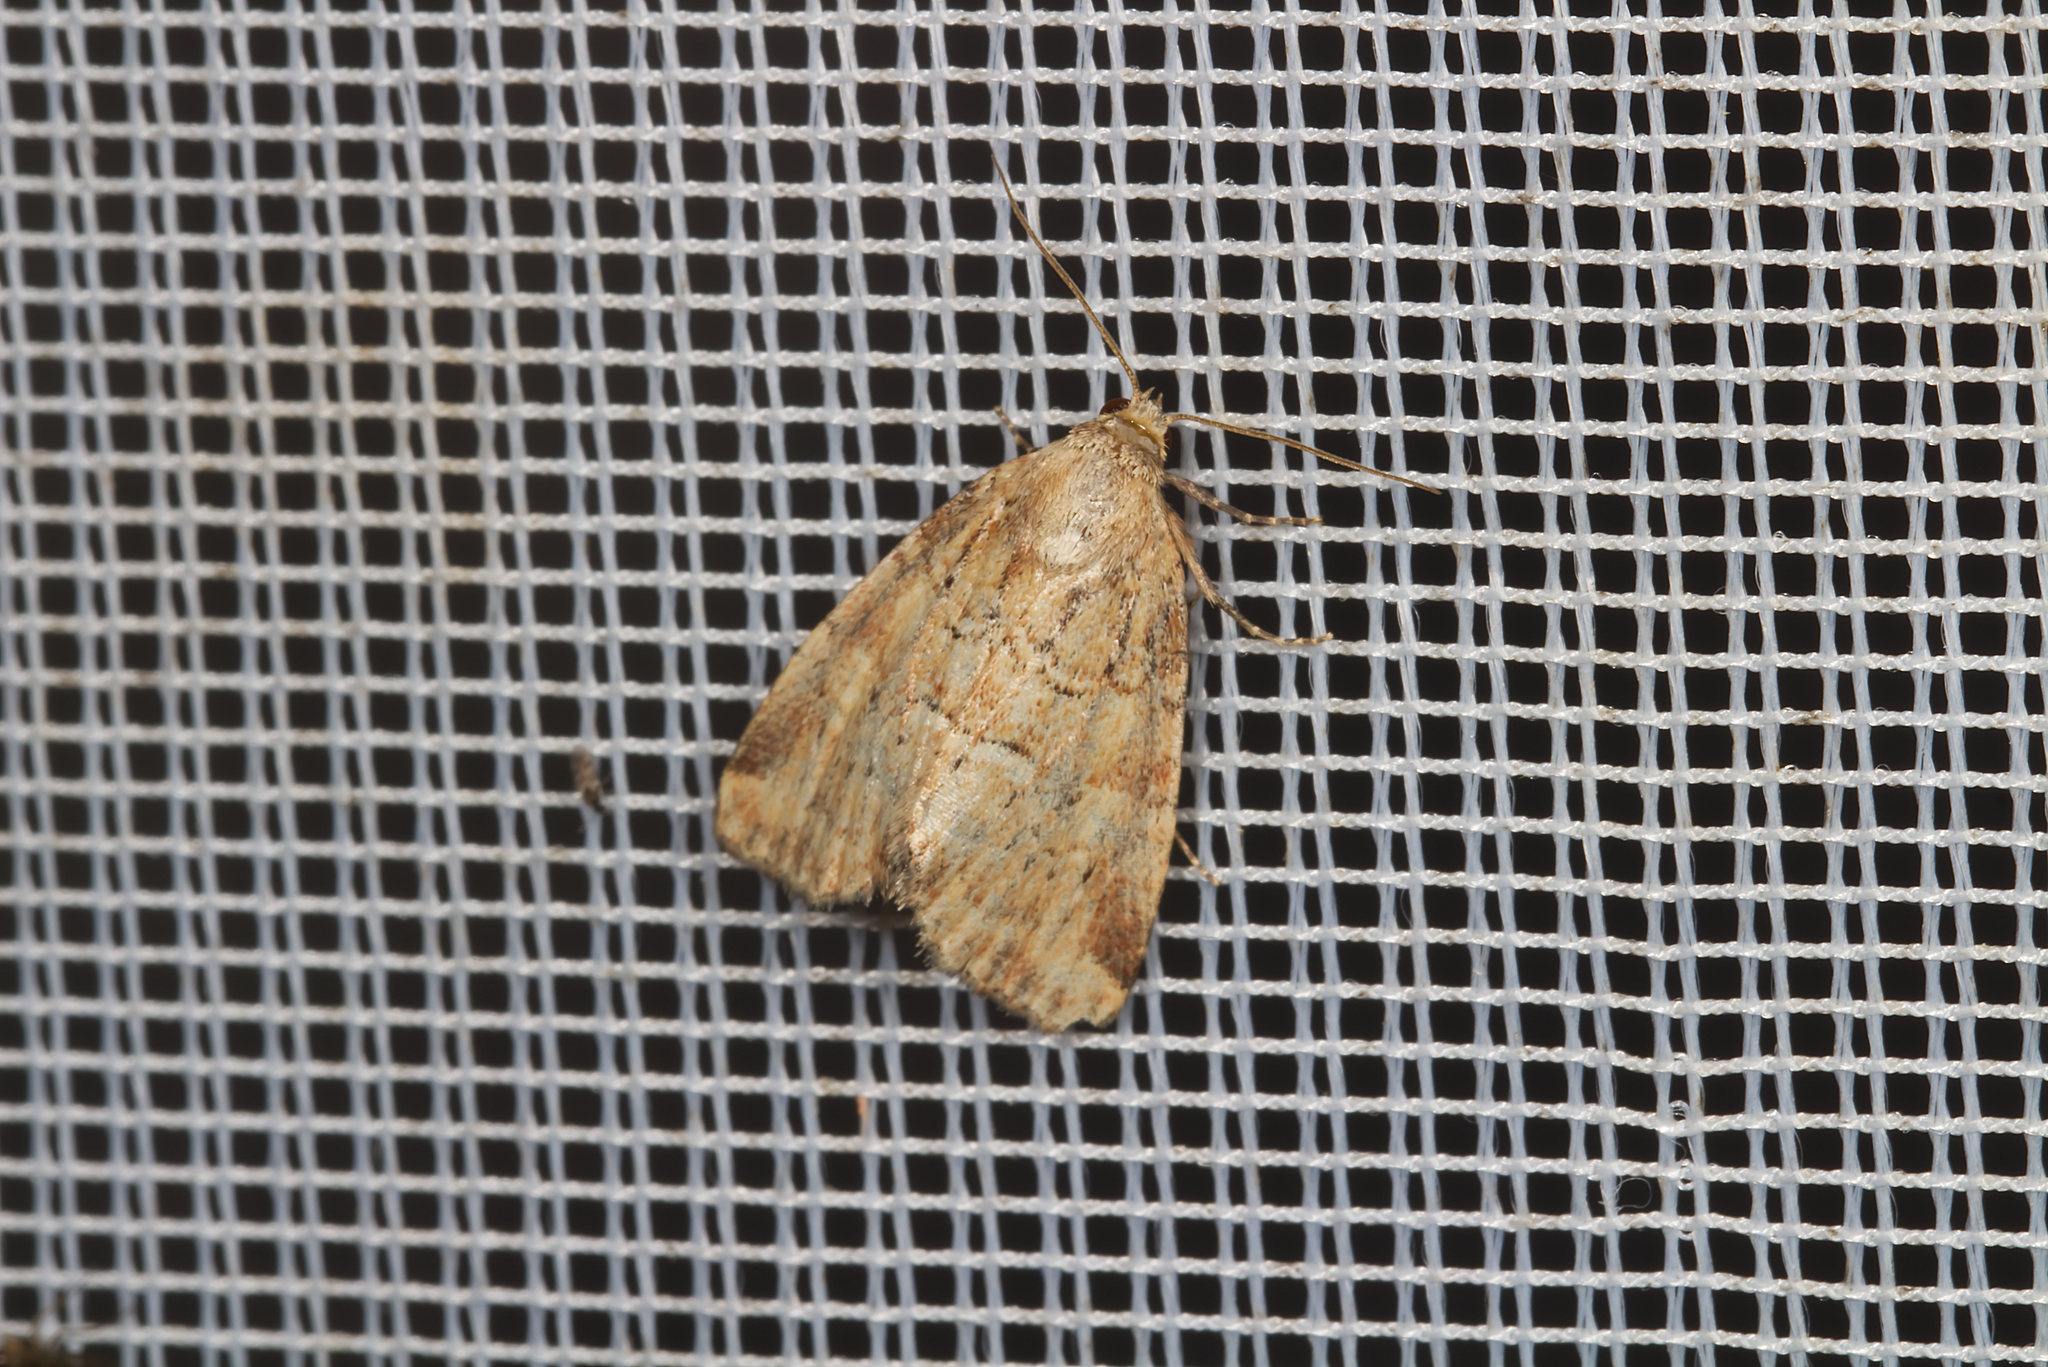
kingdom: Animalia
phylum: Arthropoda
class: Insecta
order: Lepidoptera
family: Noctuidae
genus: Photedes
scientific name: Photedes minima
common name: Small dotted buff
